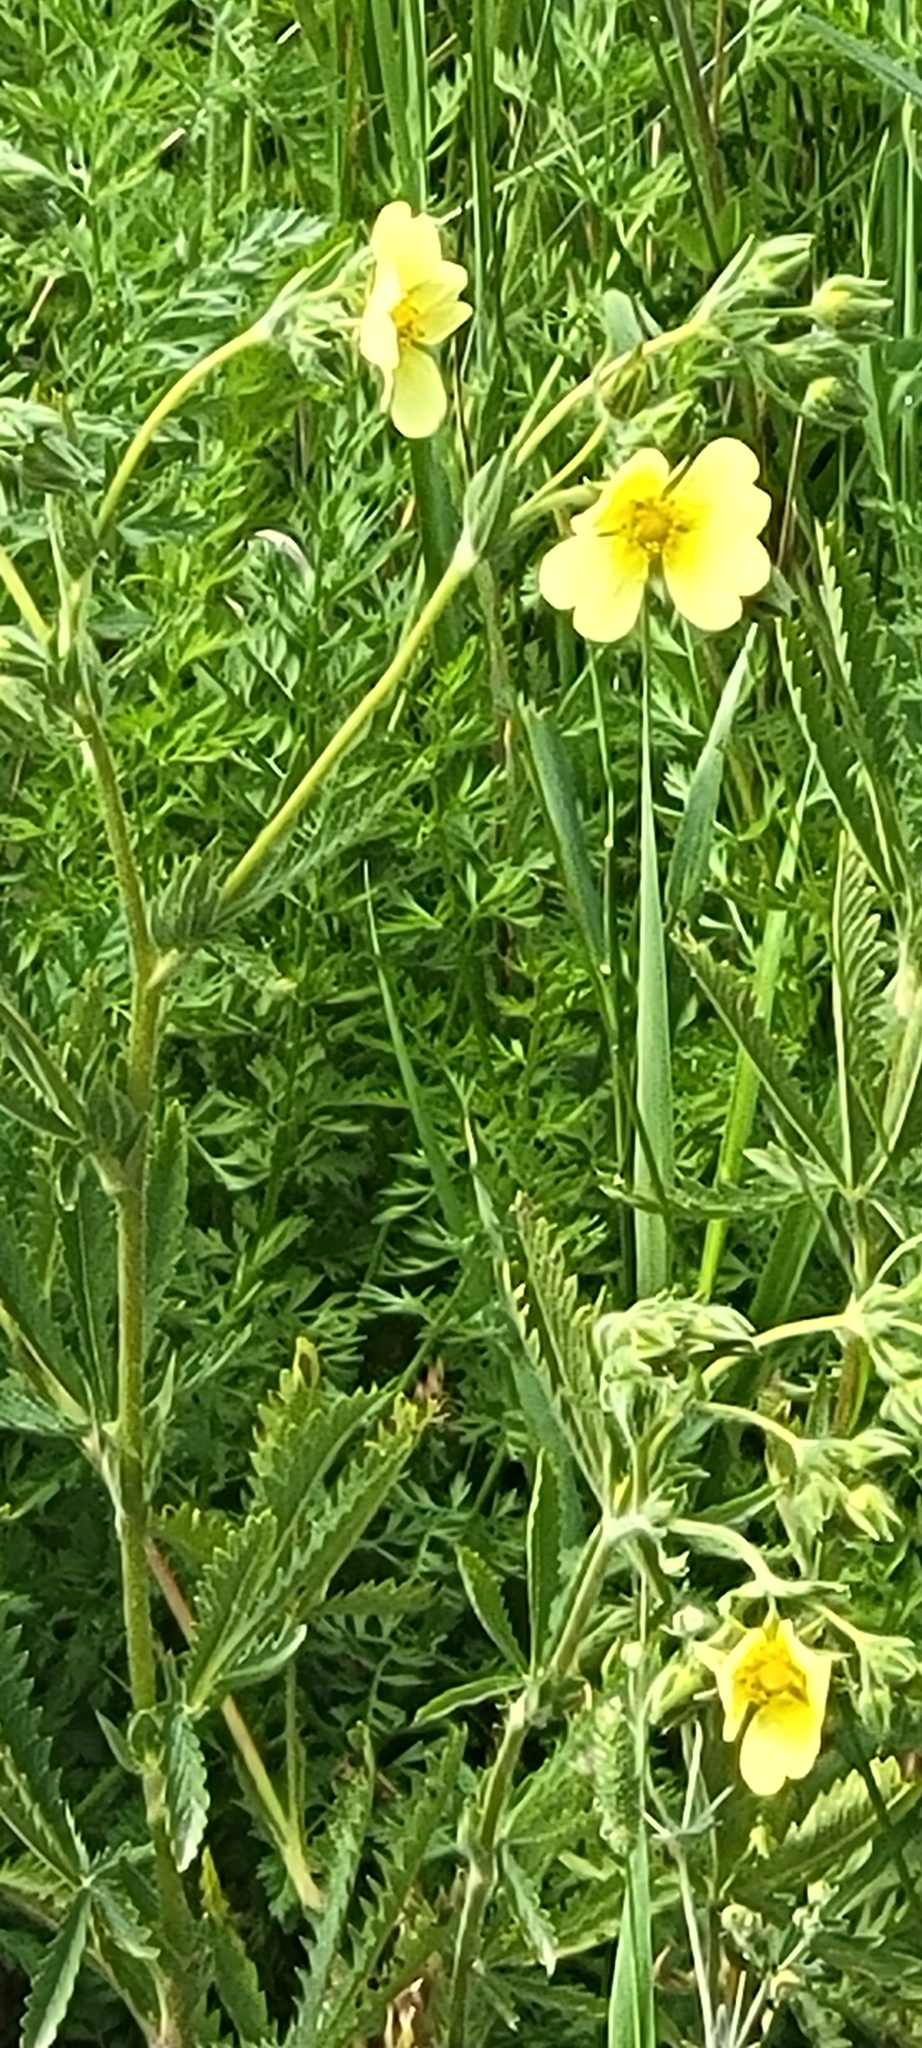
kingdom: Plantae
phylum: Tracheophyta
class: Magnoliopsida
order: Rosales
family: Rosaceae
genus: Potentilla
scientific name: Potentilla recta
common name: Sulphur cinquefoil
